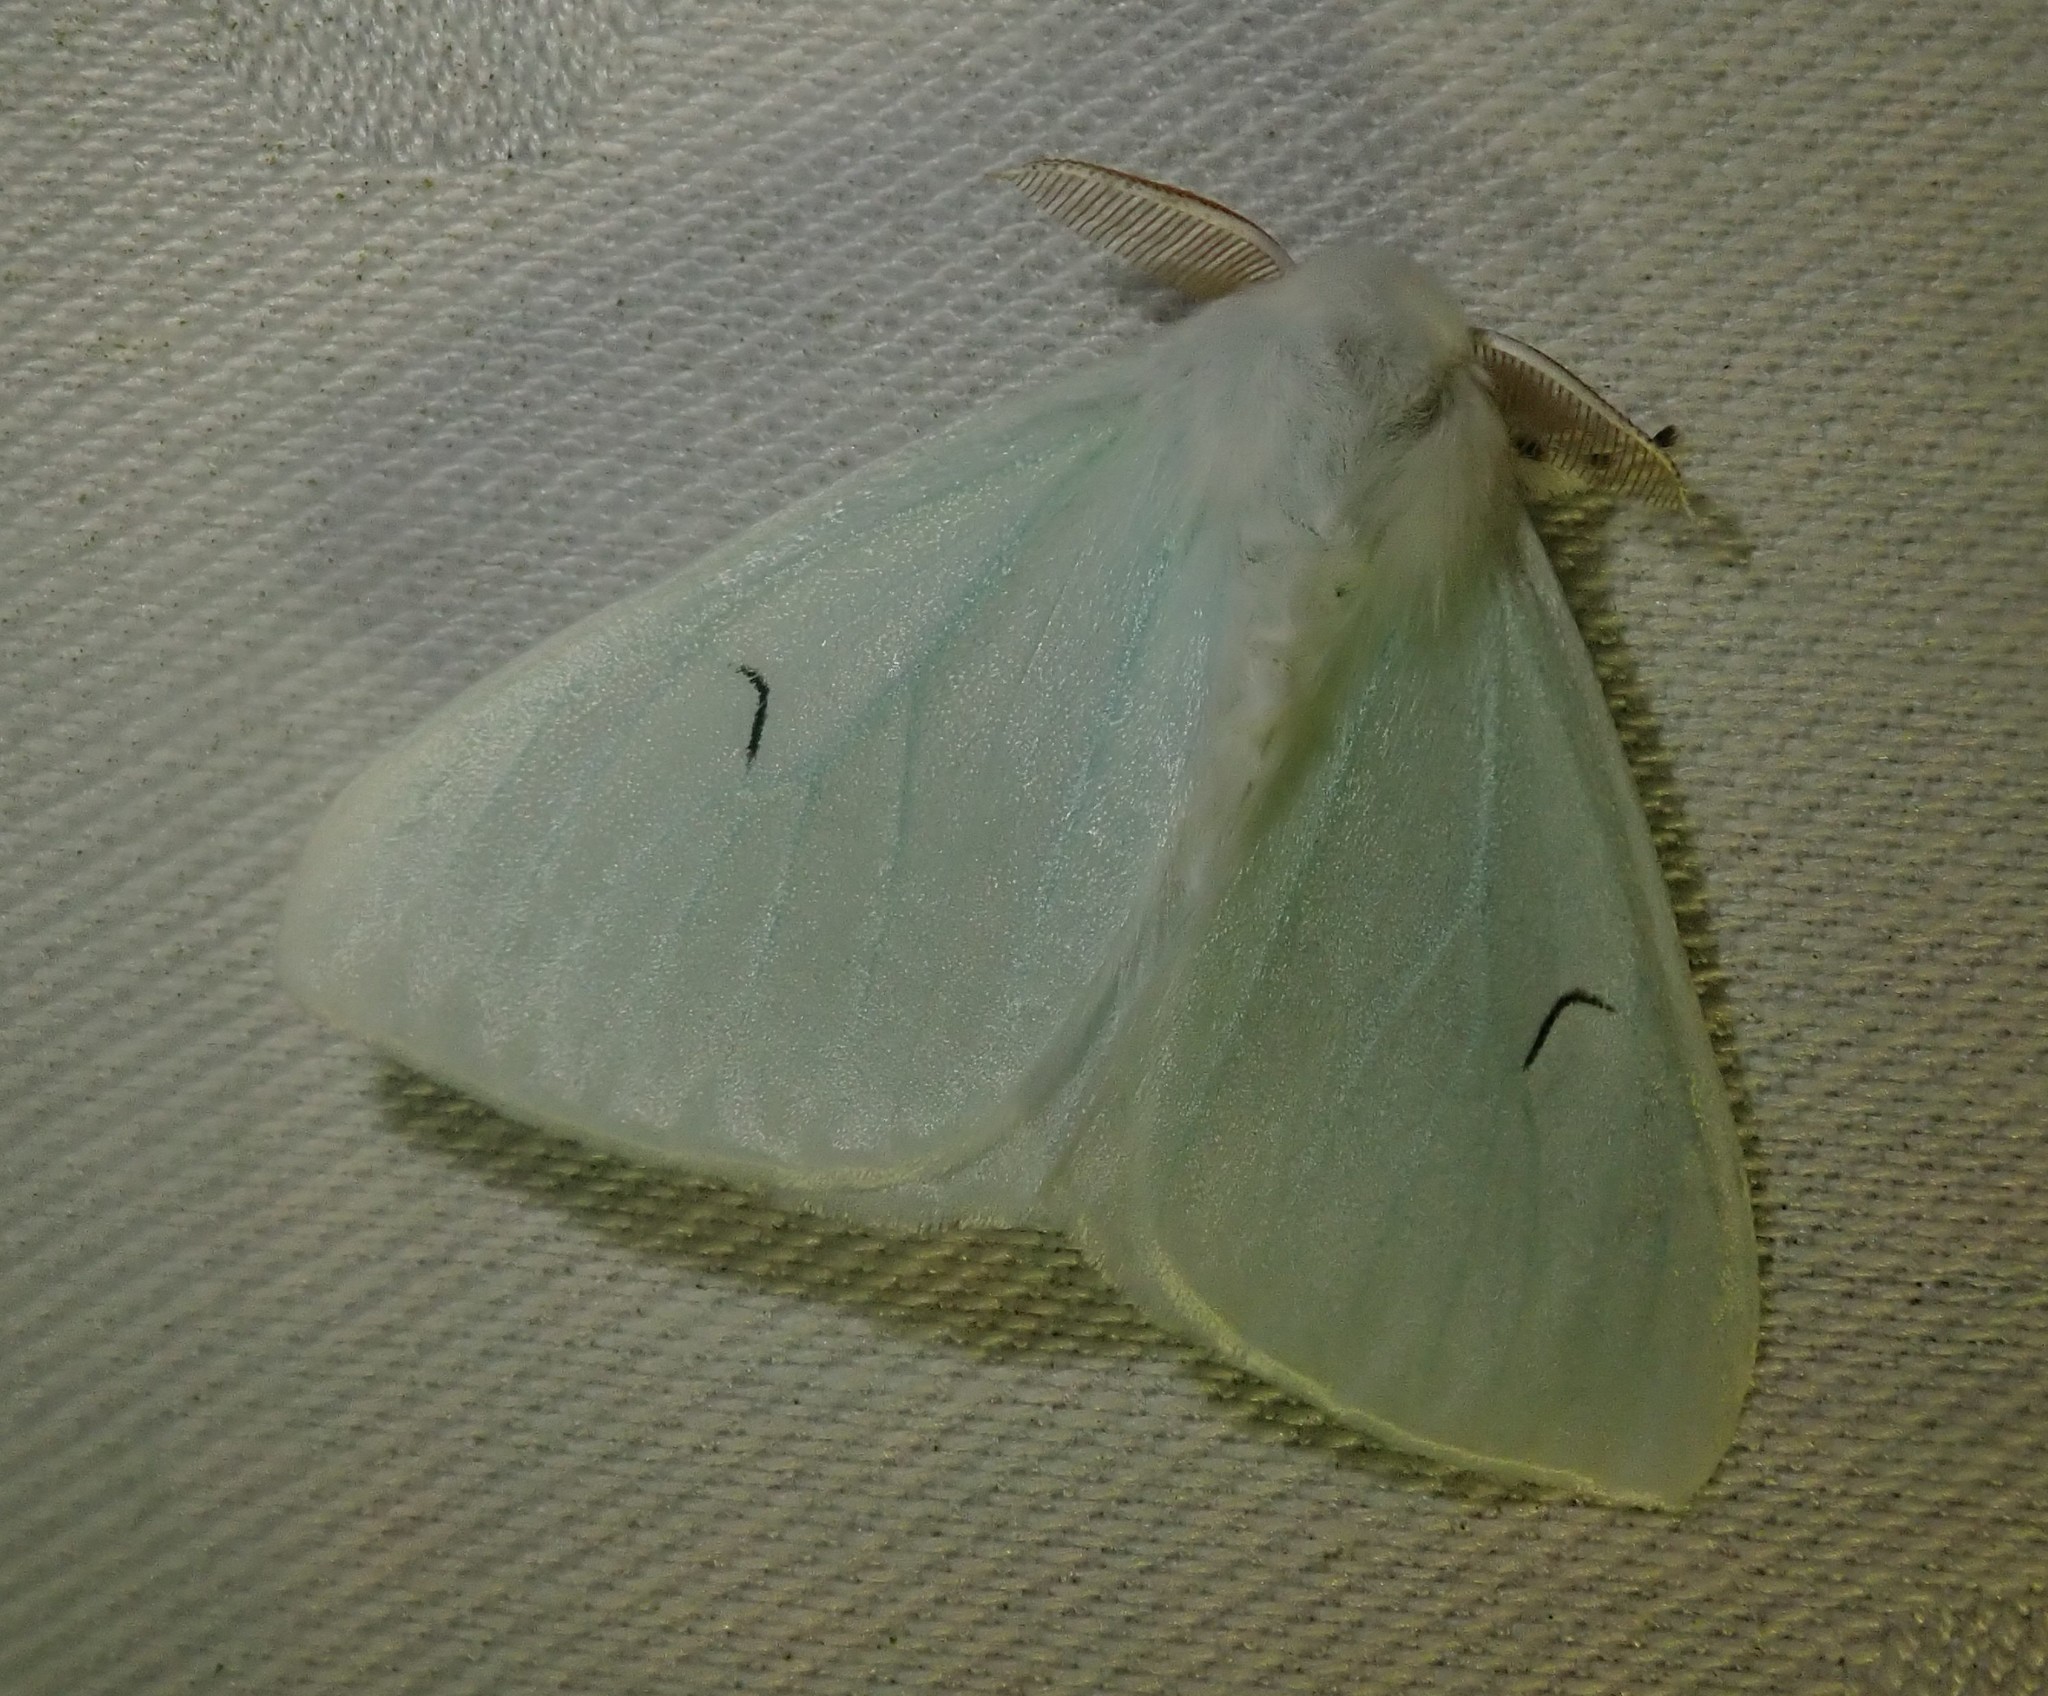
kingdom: Animalia
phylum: Arthropoda
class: Insecta
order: Lepidoptera
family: Erebidae
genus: Arctornis
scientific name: Arctornis l-nigrum
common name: Black v moth
